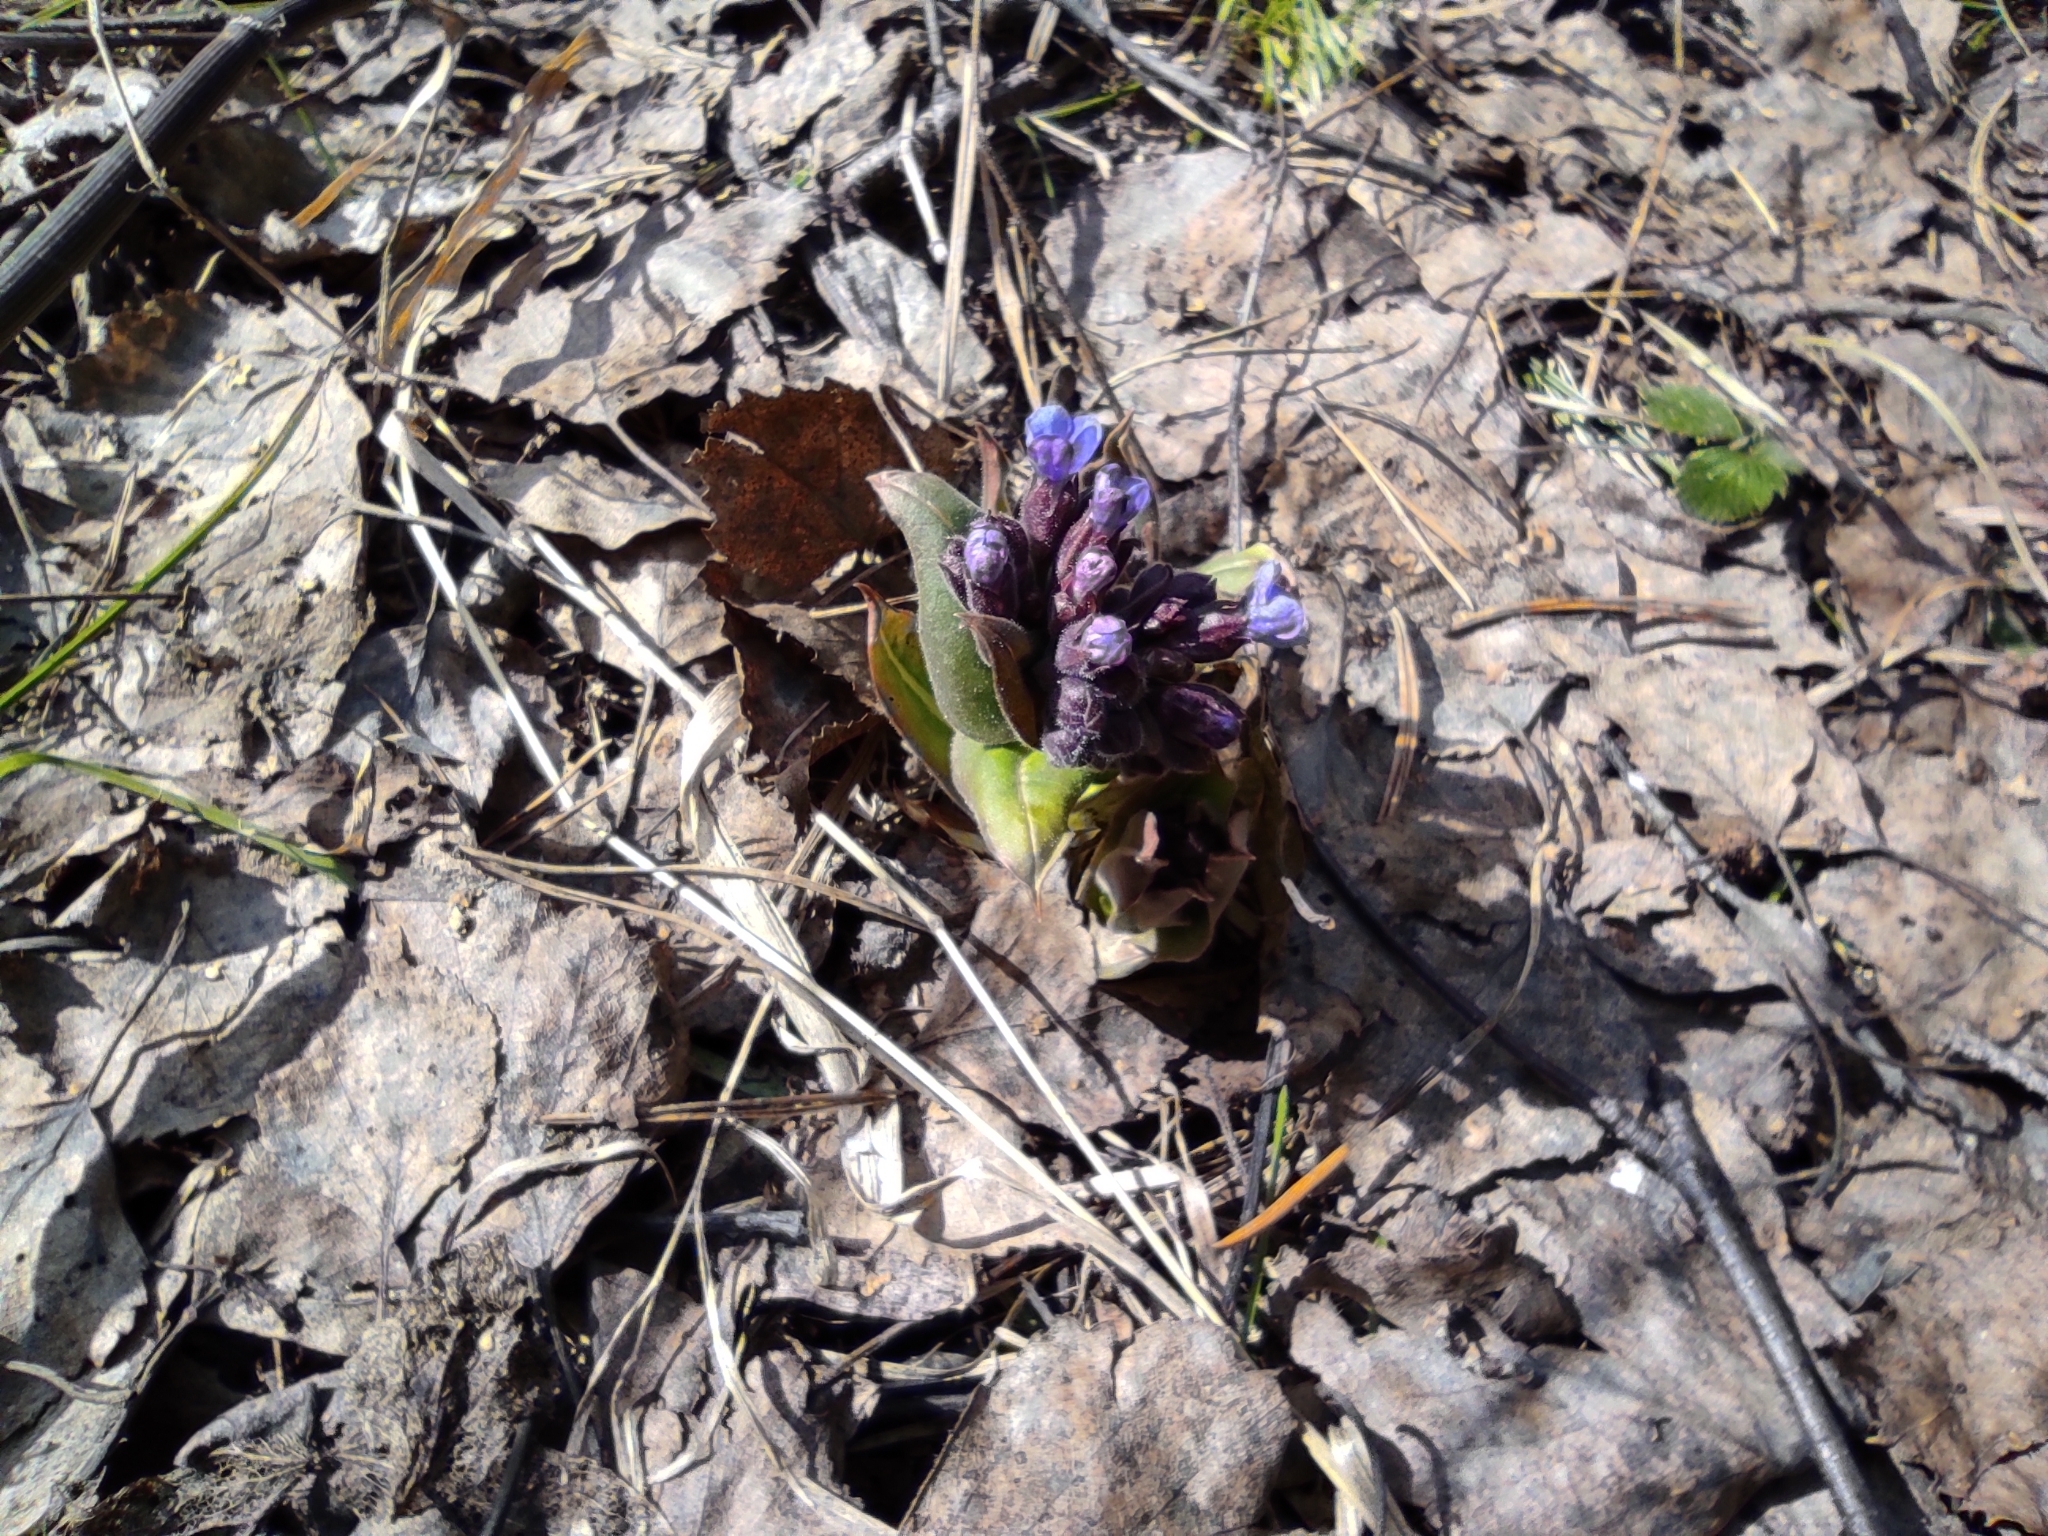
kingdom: Plantae
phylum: Tracheophyta
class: Magnoliopsida
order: Boraginales
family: Boraginaceae
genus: Pulmonaria
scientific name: Pulmonaria mollis
